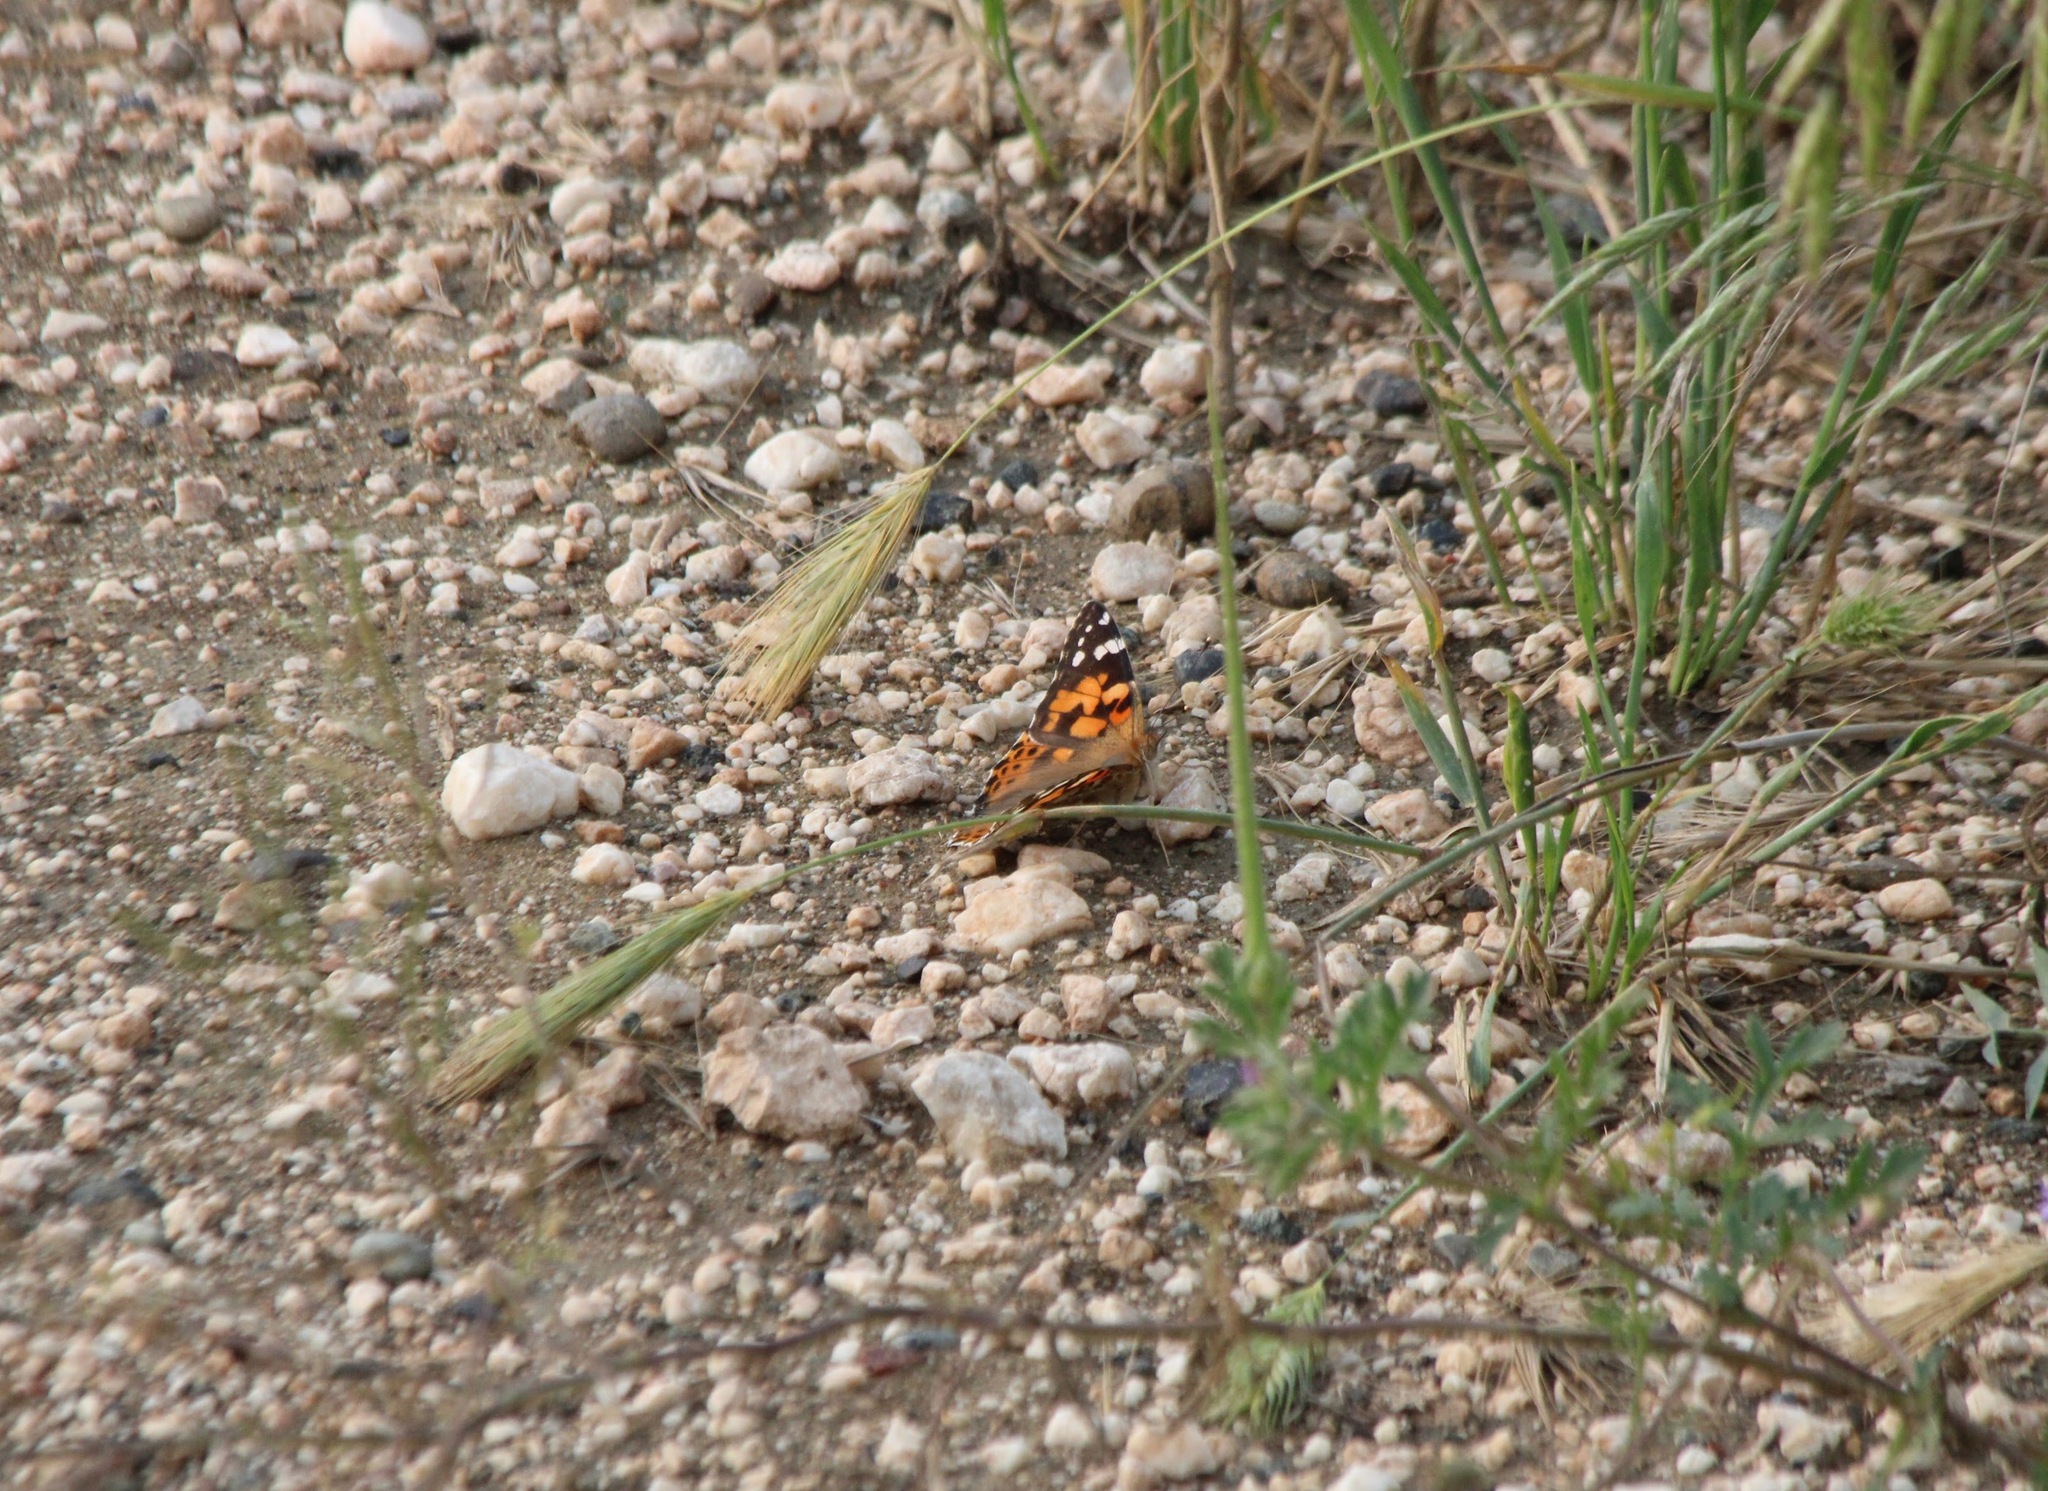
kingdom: Animalia
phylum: Arthropoda
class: Insecta
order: Lepidoptera
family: Nymphalidae
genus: Vanessa
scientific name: Vanessa cardui
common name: Painted lady
